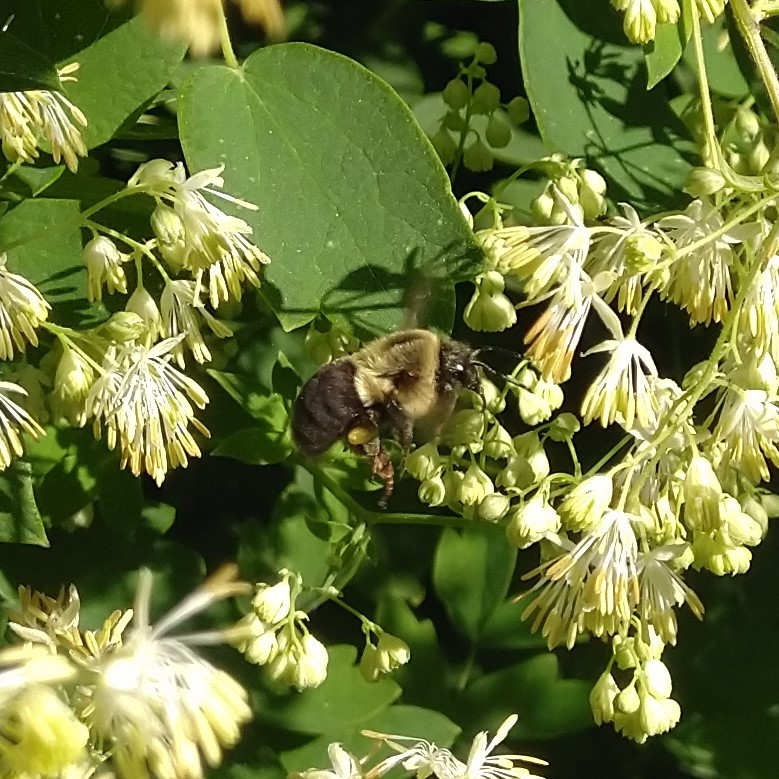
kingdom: Animalia
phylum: Arthropoda
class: Insecta
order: Hymenoptera
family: Apidae
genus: Bombus
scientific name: Bombus impatiens
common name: Common eastern bumble bee
